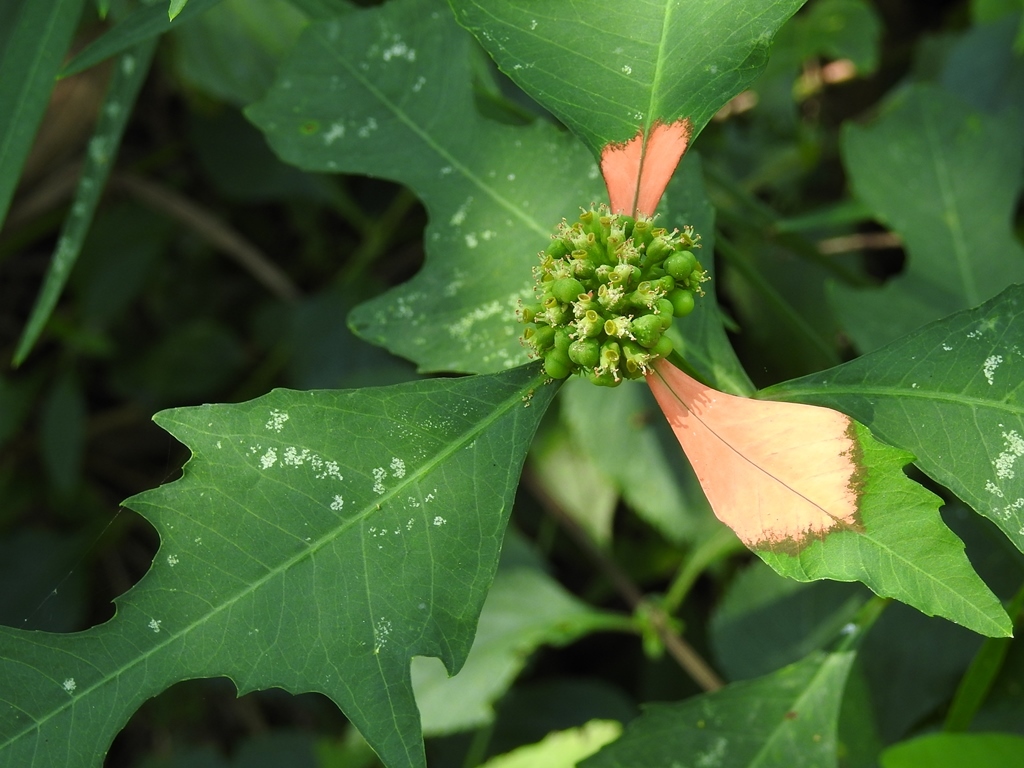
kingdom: Plantae
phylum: Tracheophyta
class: Magnoliopsida
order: Malpighiales
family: Euphorbiaceae
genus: Euphorbia
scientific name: Euphorbia heterophylla
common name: Mexican fireplant
